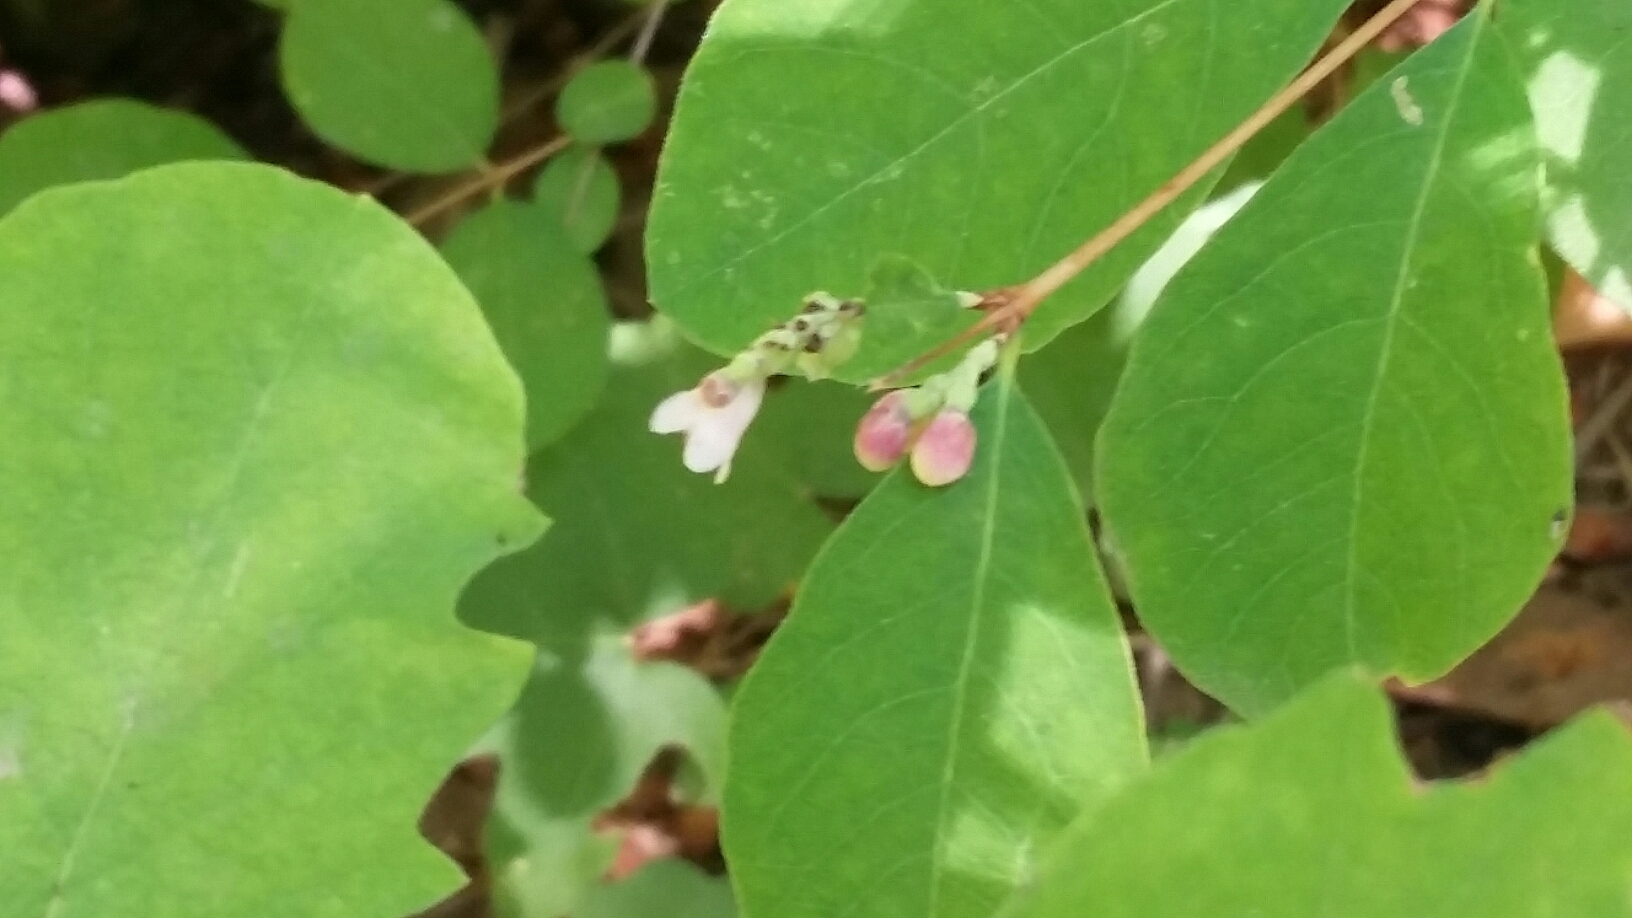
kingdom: Plantae
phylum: Tracheophyta
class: Magnoliopsida
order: Dipsacales
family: Caprifoliaceae
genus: Symphoricarpos
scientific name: Symphoricarpos albus
